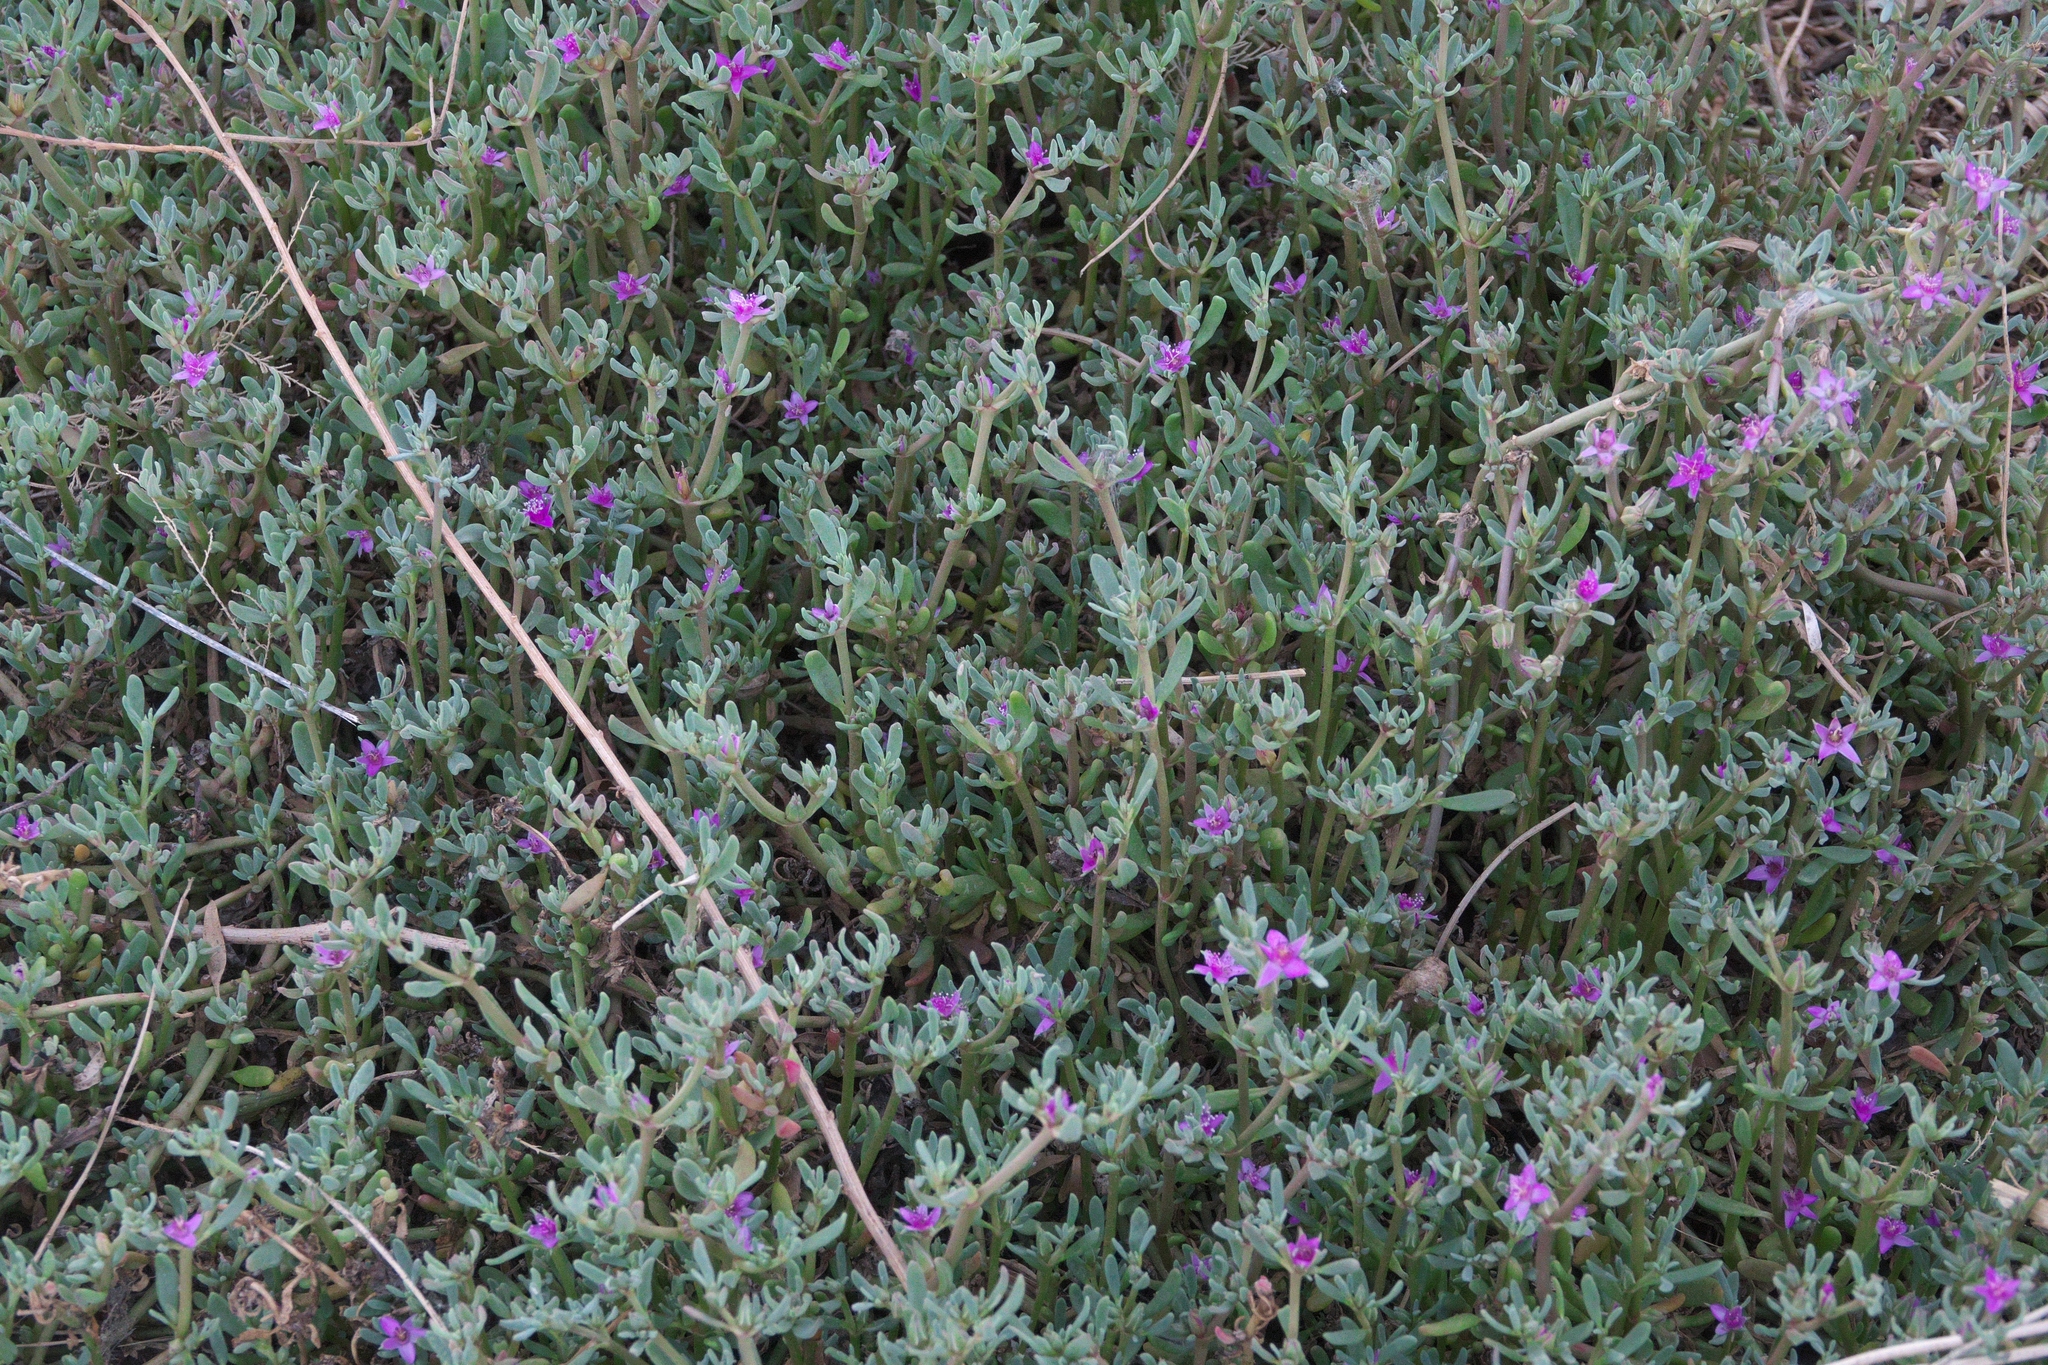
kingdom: Plantae
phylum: Tracheophyta
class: Magnoliopsida
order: Caryophyllales
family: Aizoaceae
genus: Sesuvium
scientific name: Sesuvium revolutifolium
